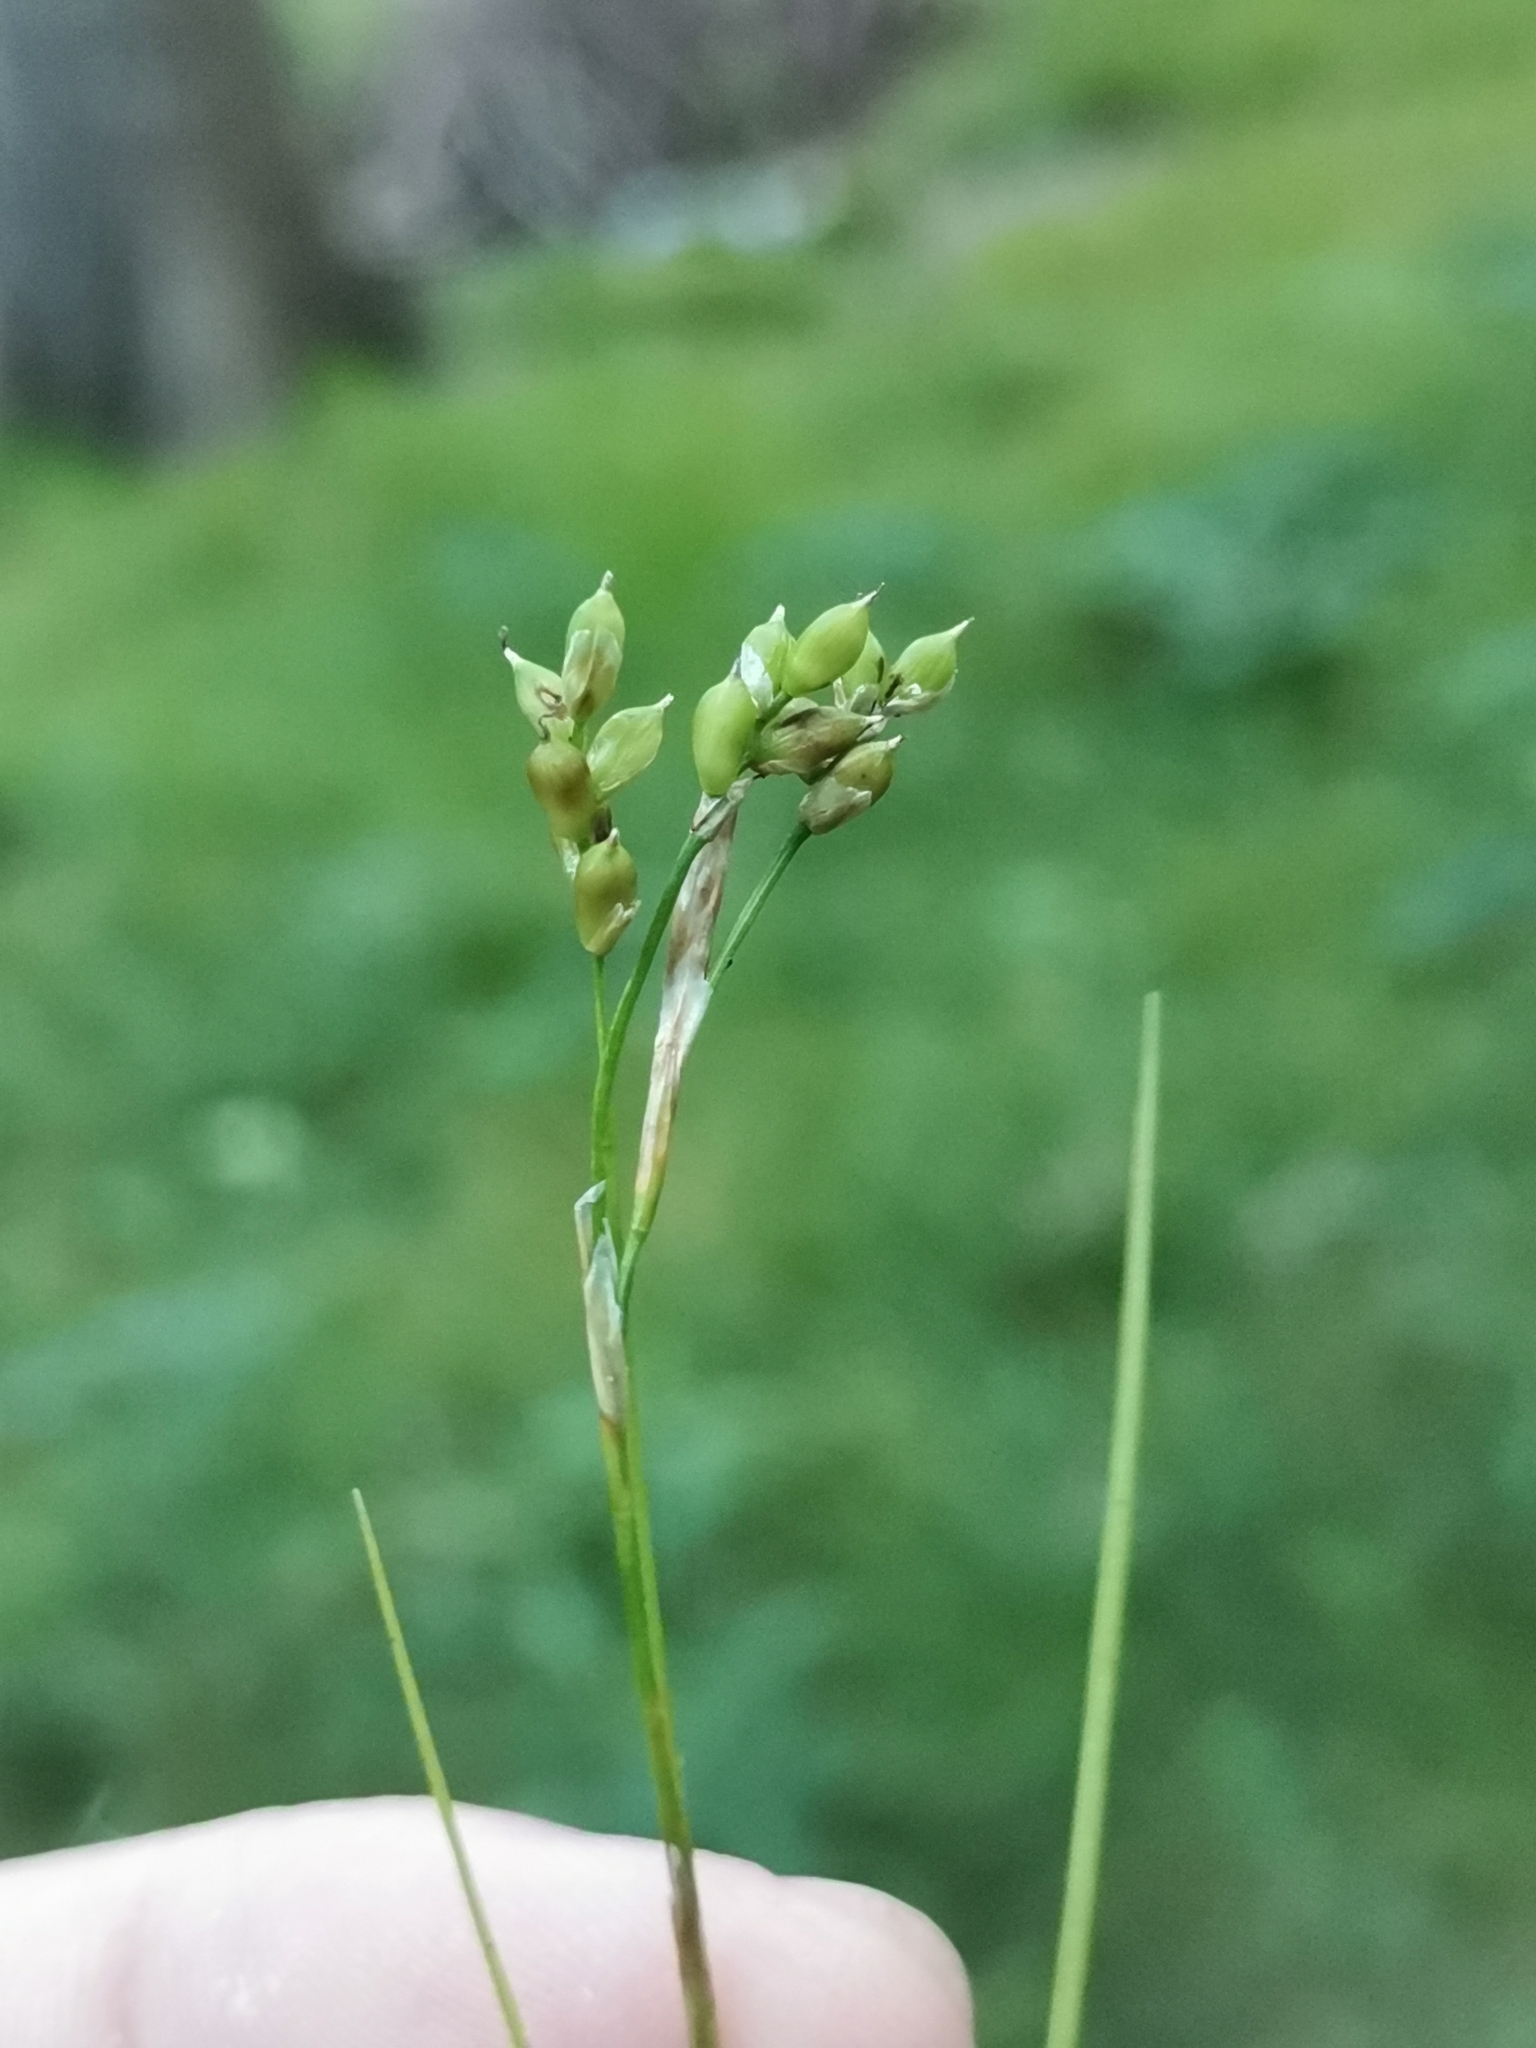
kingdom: Plantae
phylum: Tracheophyta
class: Liliopsida
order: Poales
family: Cyperaceae
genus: Carex
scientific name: Carex alba
